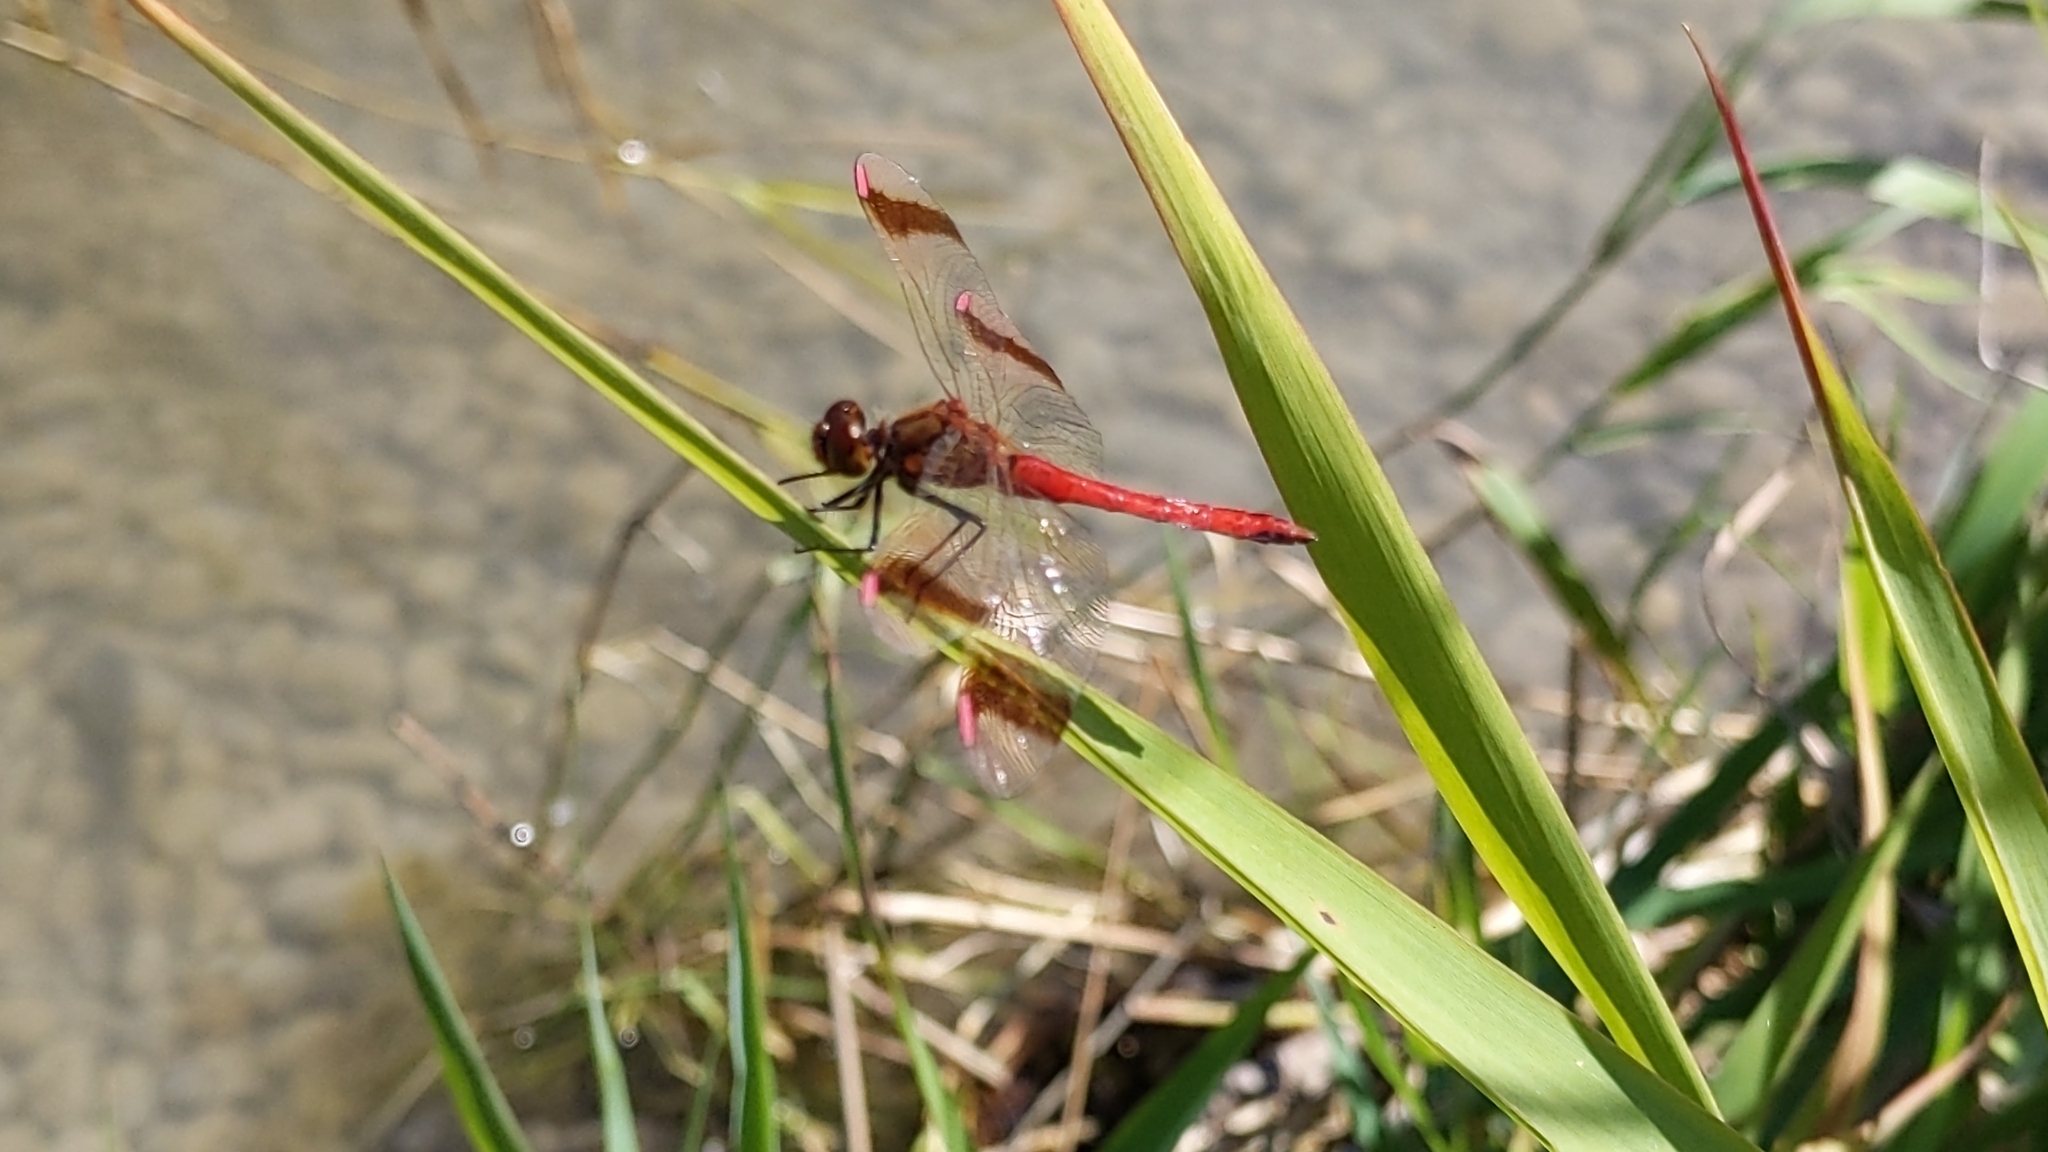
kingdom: Animalia
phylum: Arthropoda
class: Insecta
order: Odonata
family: Libellulidae
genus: Sympetrum
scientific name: Sympetrum pedemontanum
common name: Banded darter
